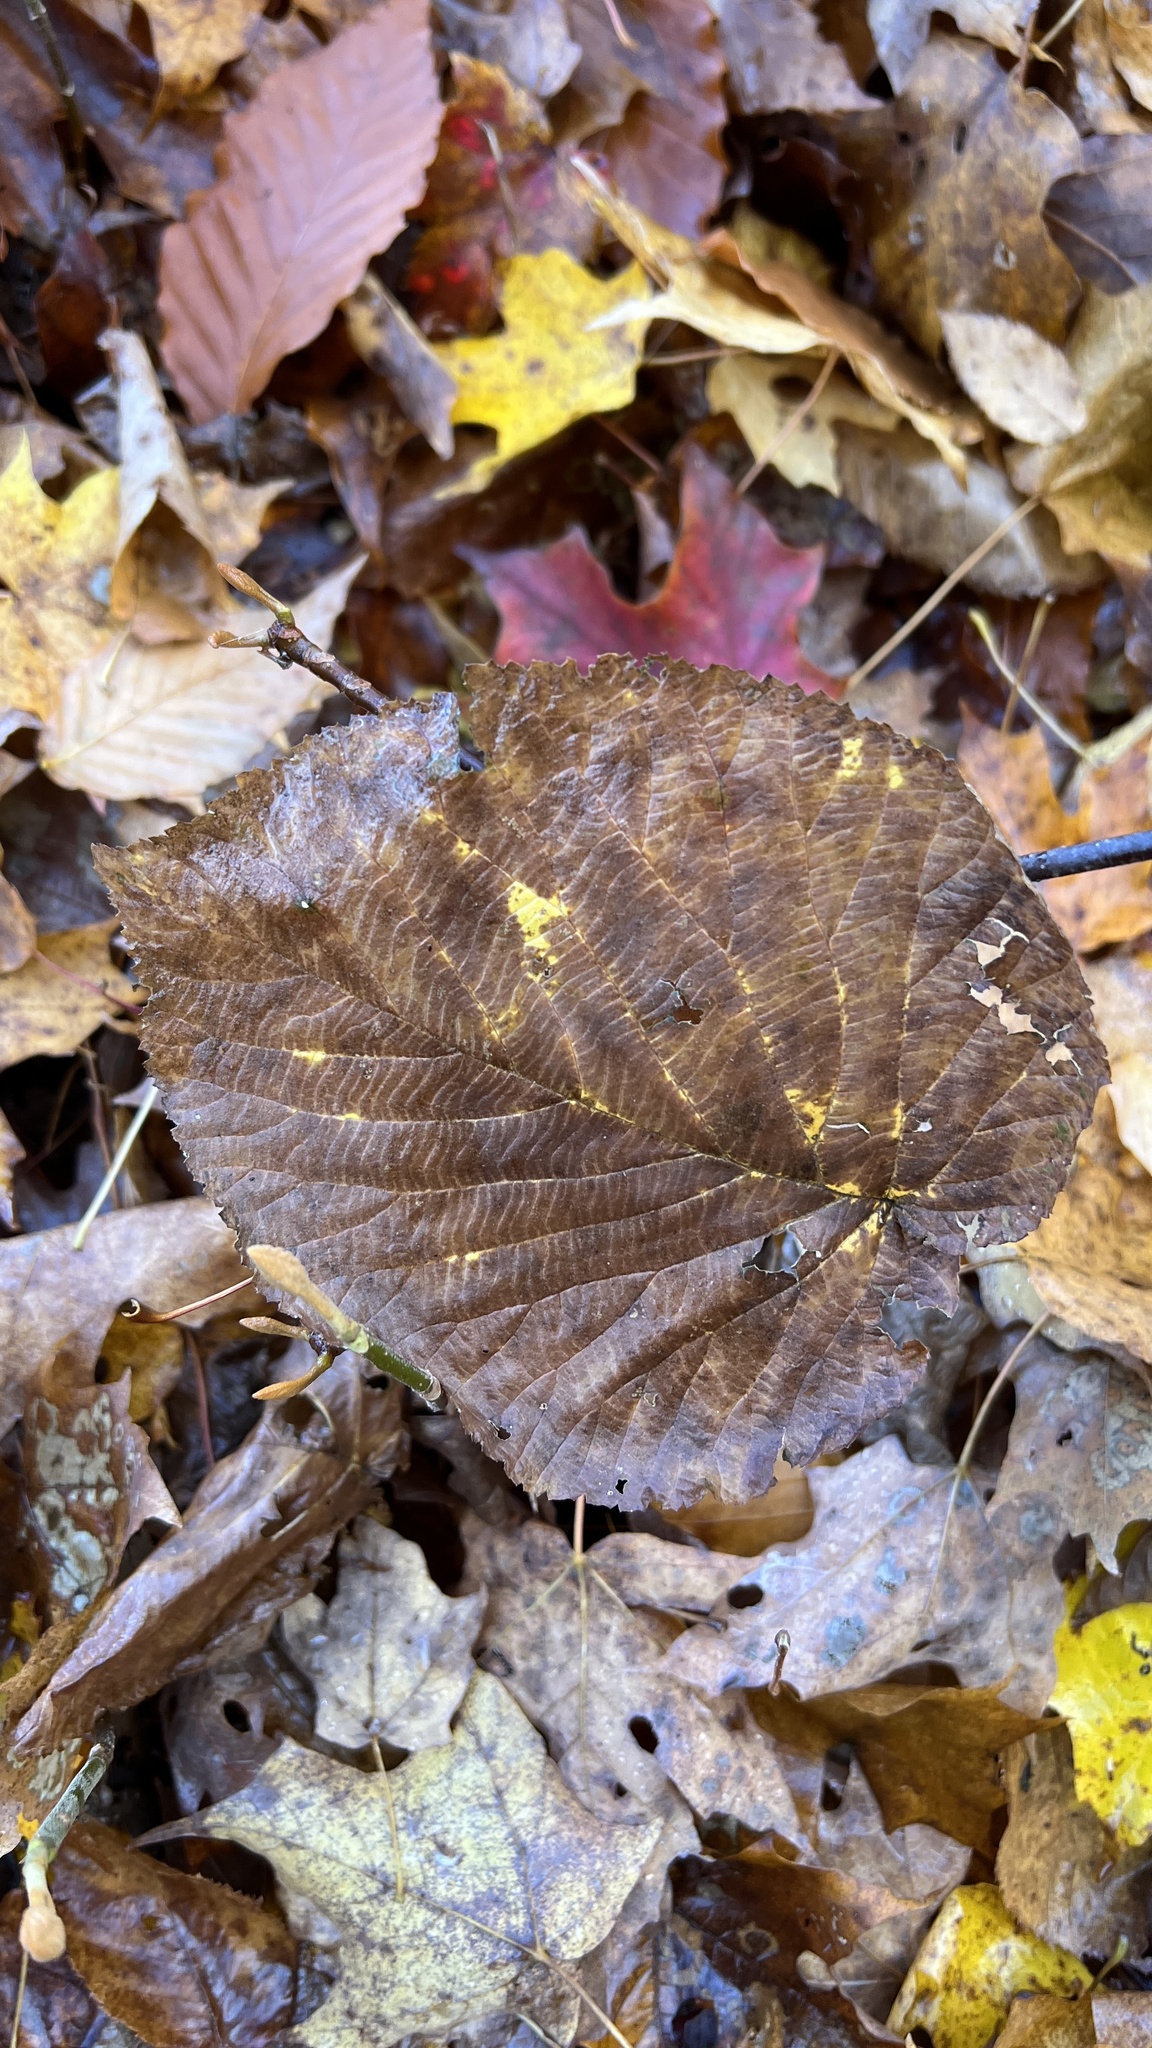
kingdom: Plantae
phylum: Tracheophyta
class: Magnoliopsida
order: Dipsacales
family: Viburnaceae
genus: Viburnum
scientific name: Viburnum lantanoides
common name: Hobblebush
